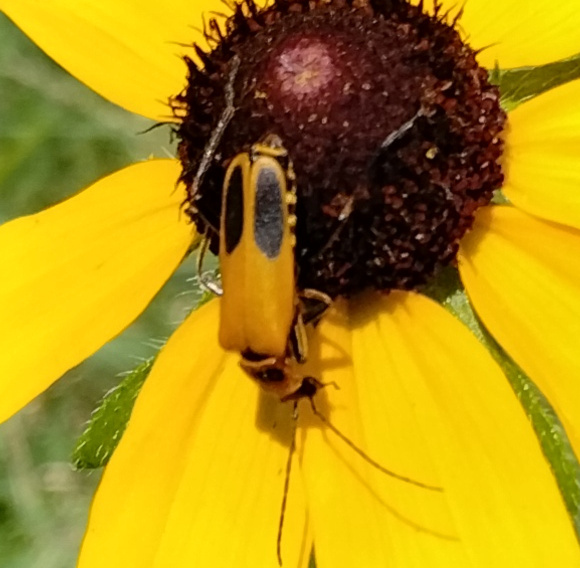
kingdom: Animalia
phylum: Arthropoda
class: Insecta
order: Coleoptera
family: Cantharidae
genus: Chauliognathus
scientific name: Chauliognathus pensylvanicus
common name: Goldenrod soldier beetle
